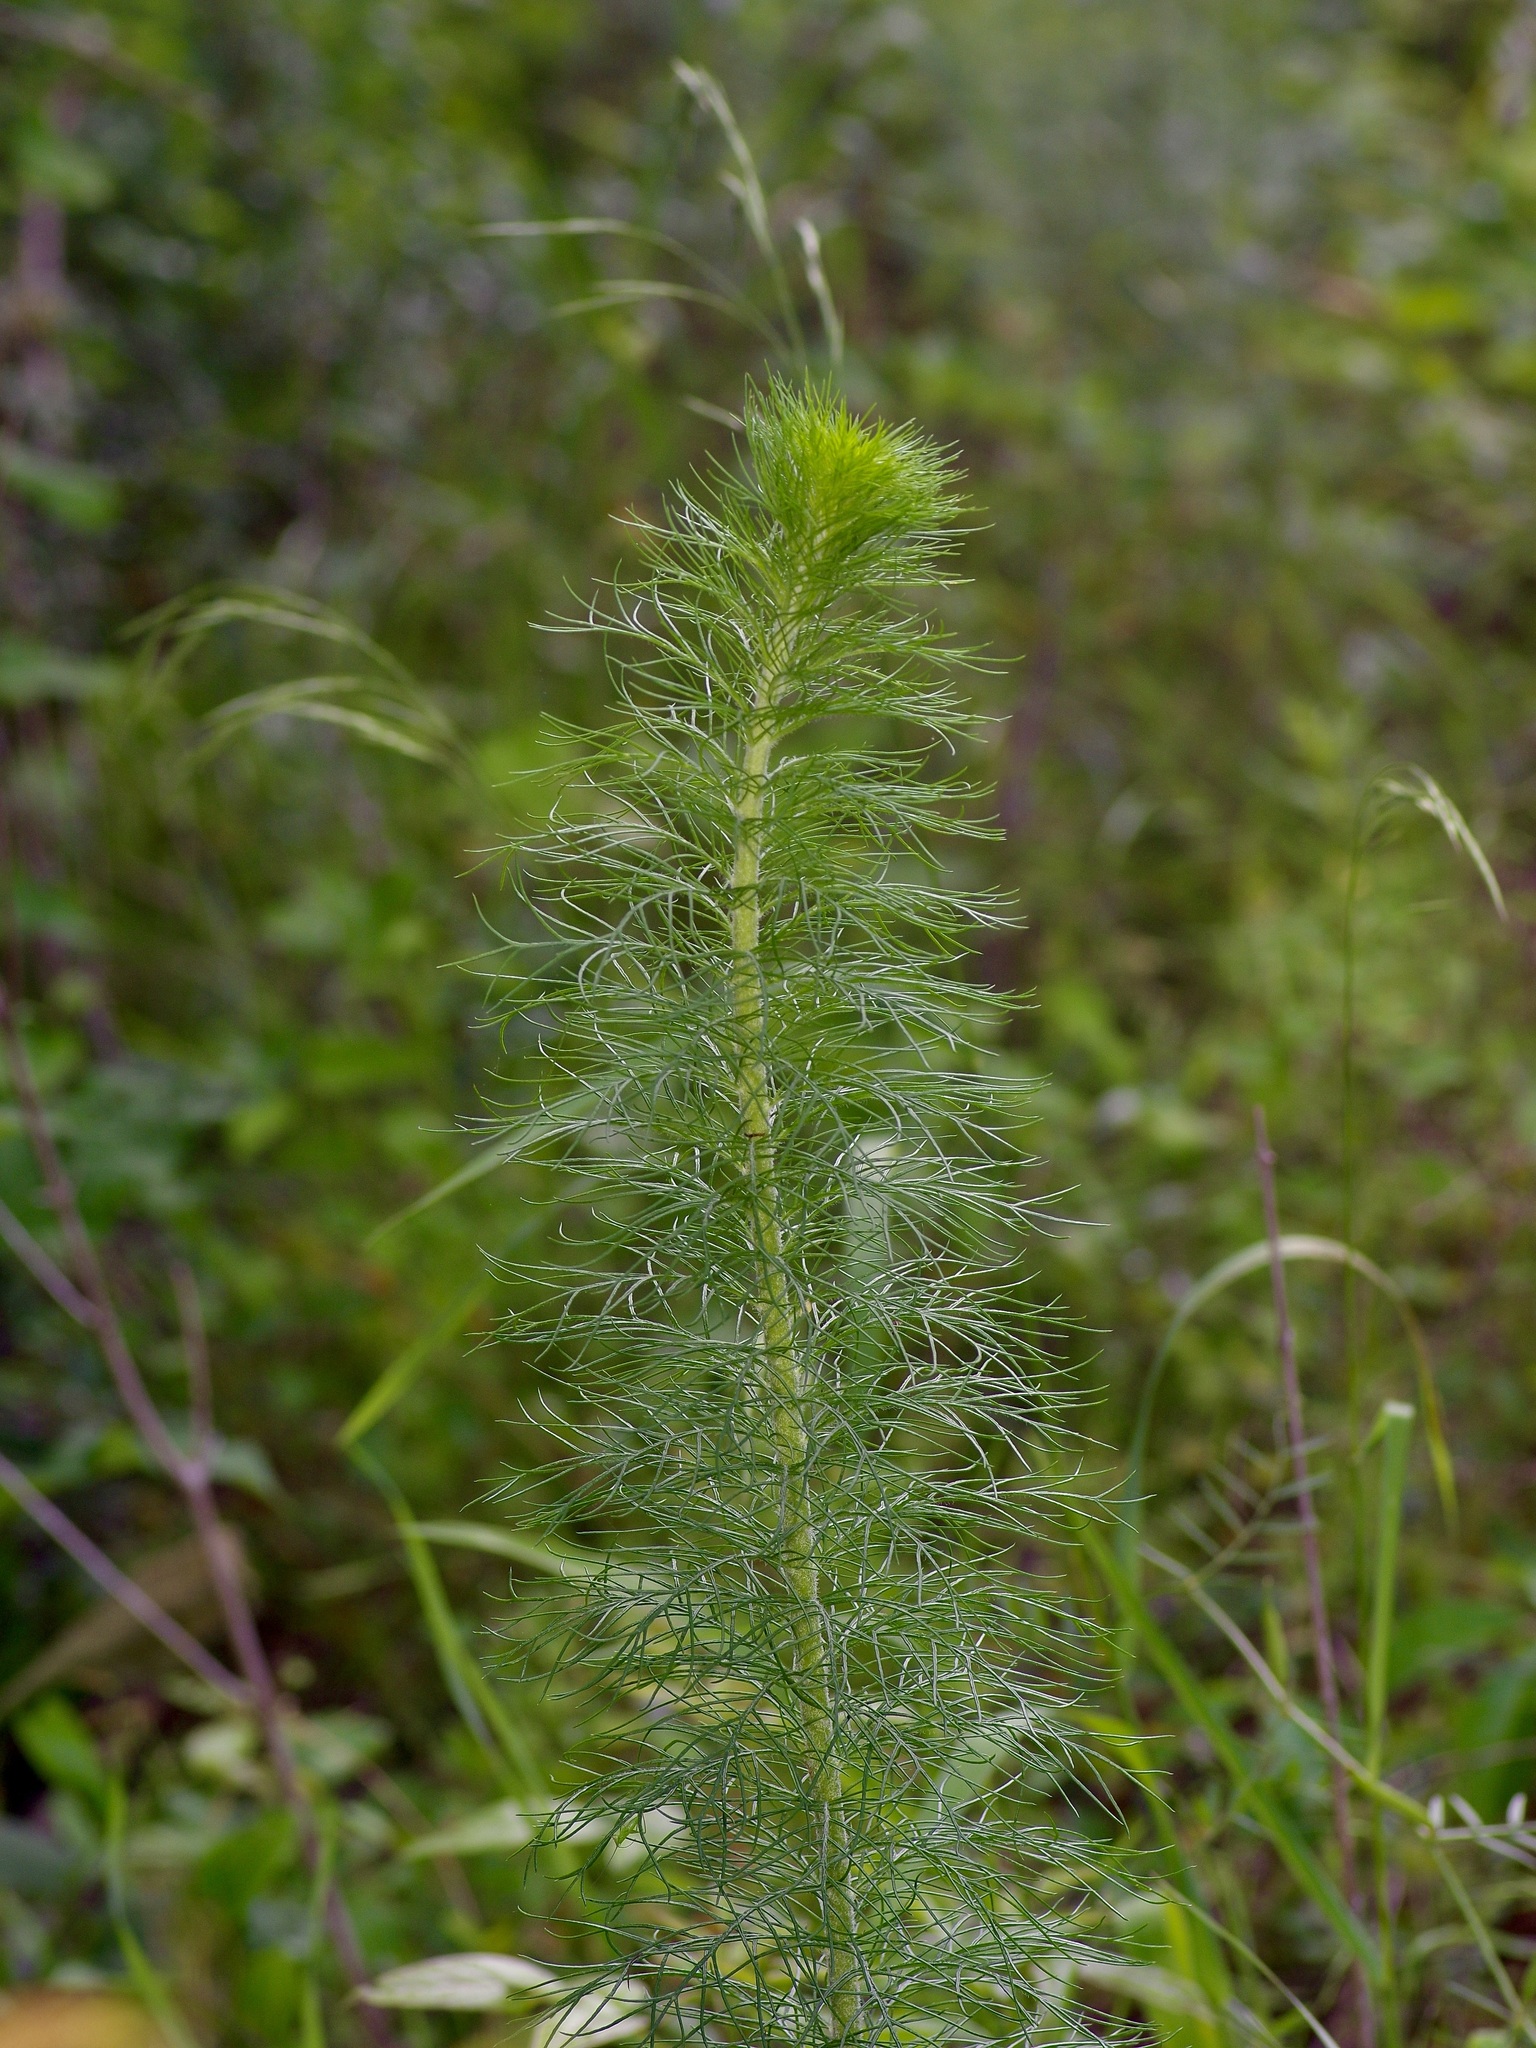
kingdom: Plantae
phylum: Tracheophyta
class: Magnoliopsida
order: Ericales
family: Polemoniaceae
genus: Ipomopsis
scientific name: Ipomopsis rubra
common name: Skyrocket
